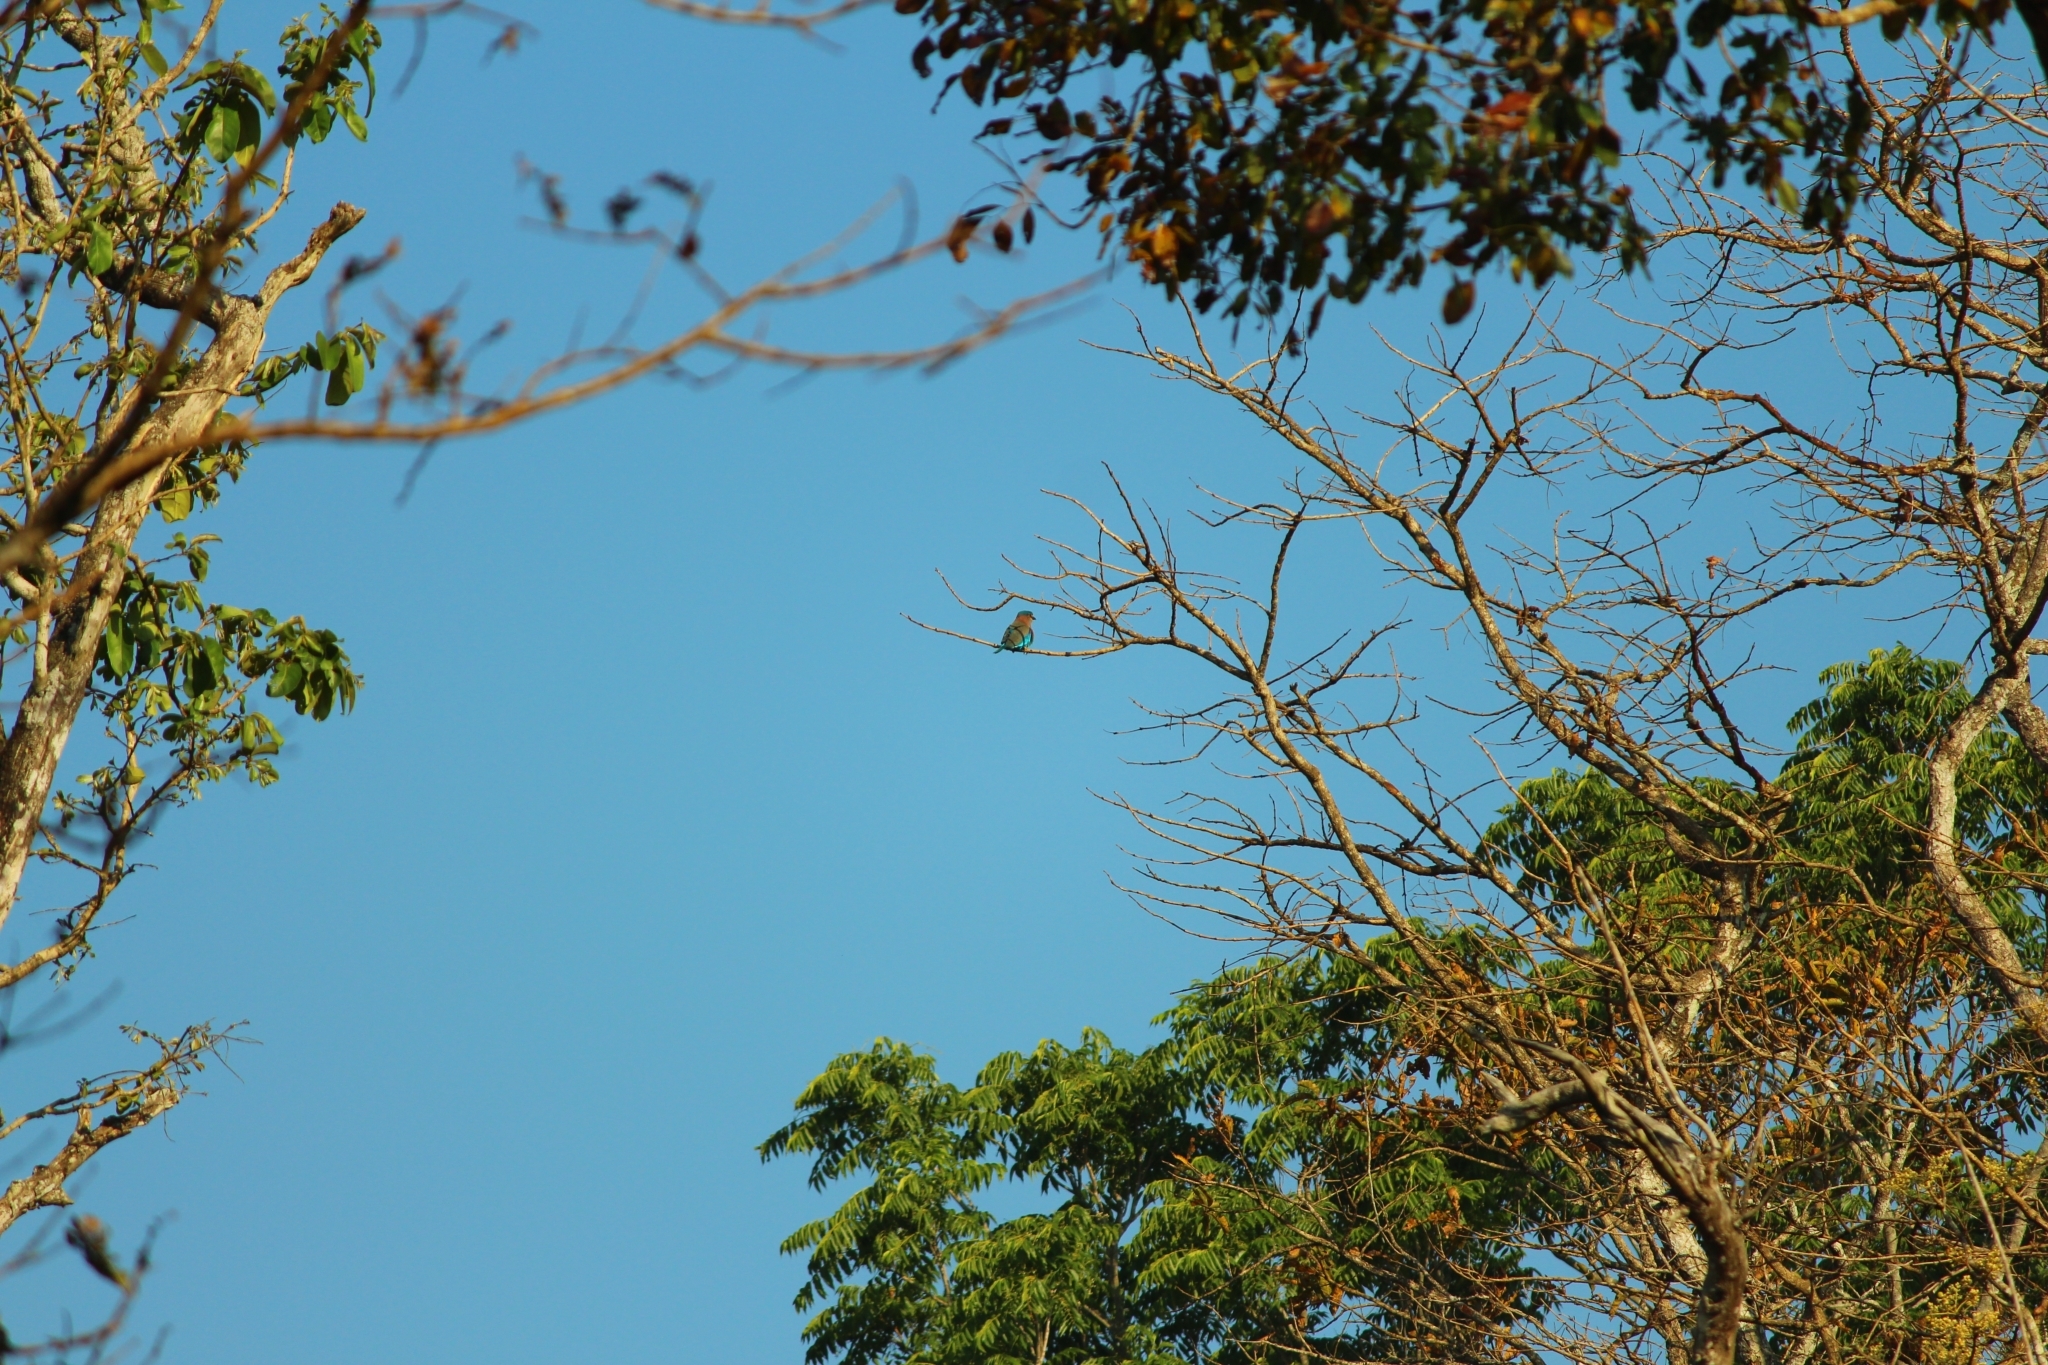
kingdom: Animalia
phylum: Chordata
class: Aves
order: Coraciiformes
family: Coraciidae
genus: Coracias
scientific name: Coracias benghalensis
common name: Indian roller
